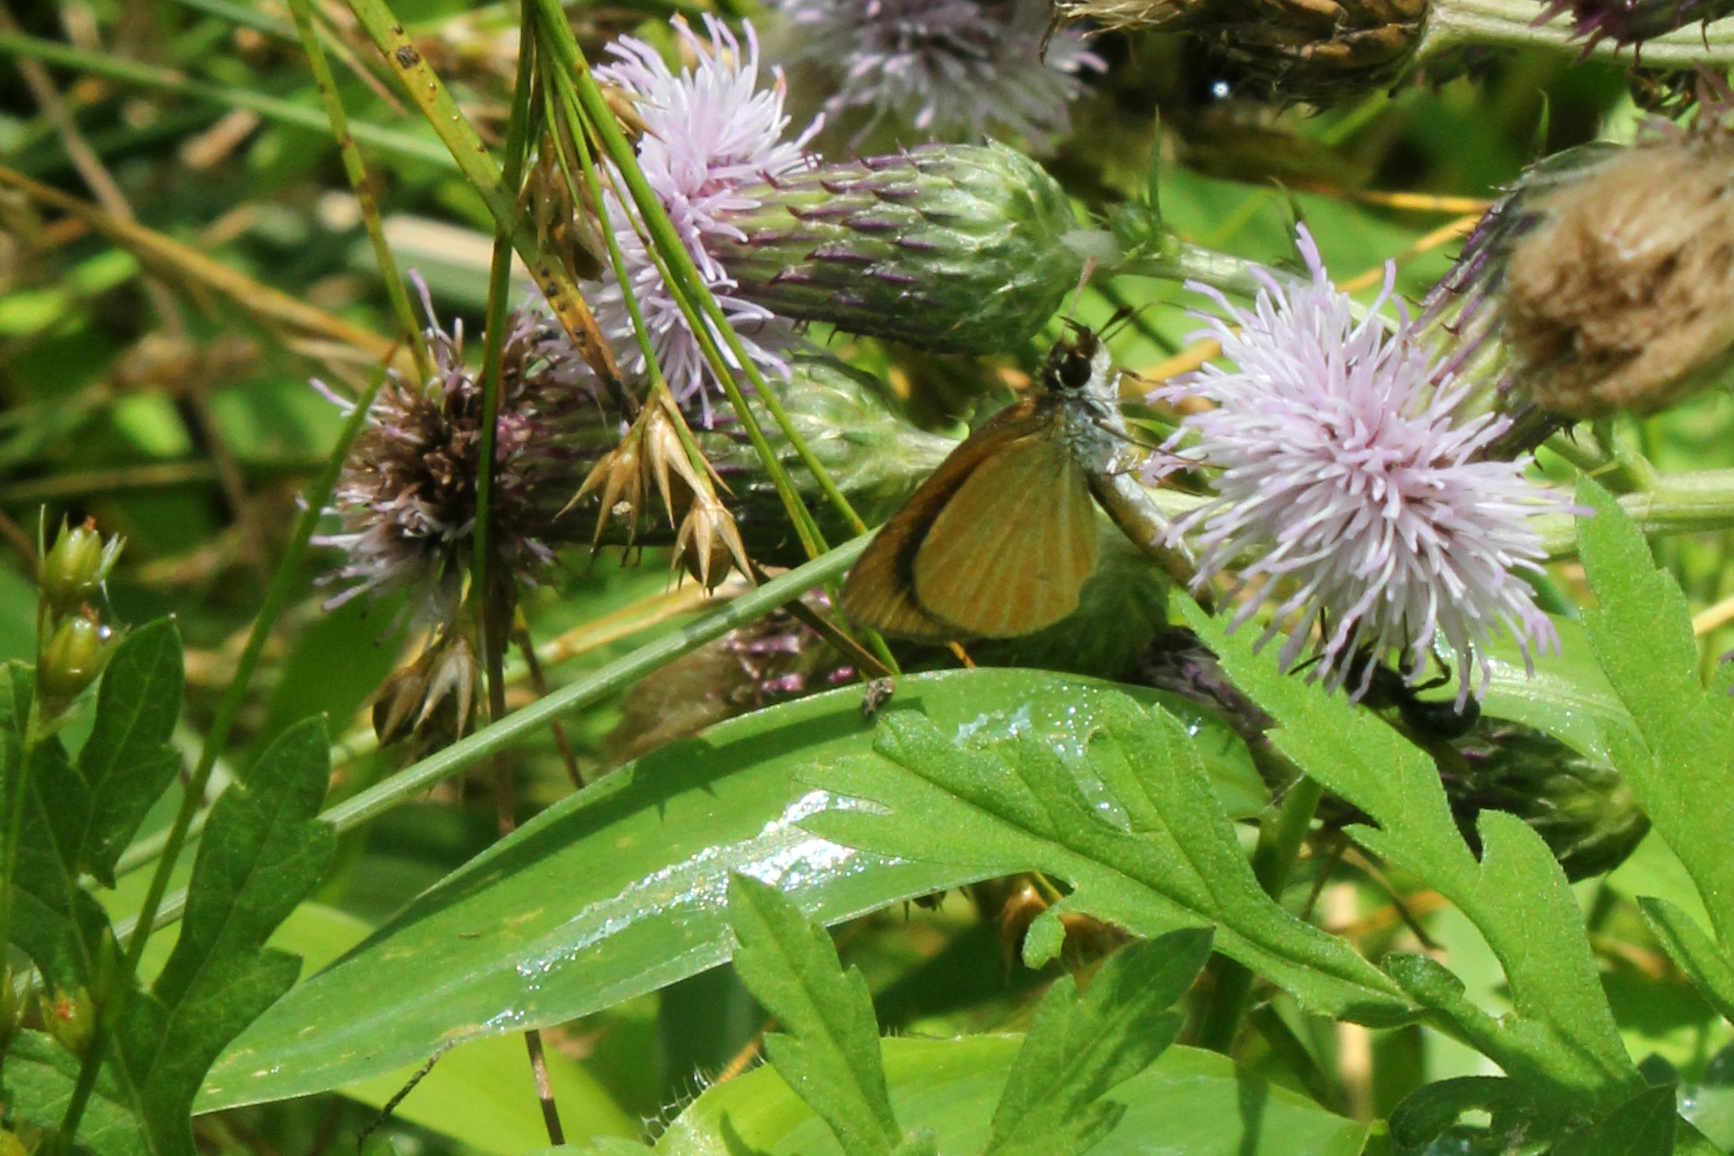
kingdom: Animalia
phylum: Arthropoda
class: Insecta
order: Lepidoptera
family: Hesperiidae
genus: Ancyloxypha
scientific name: Ancyloxypha numitor
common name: Least skipper
